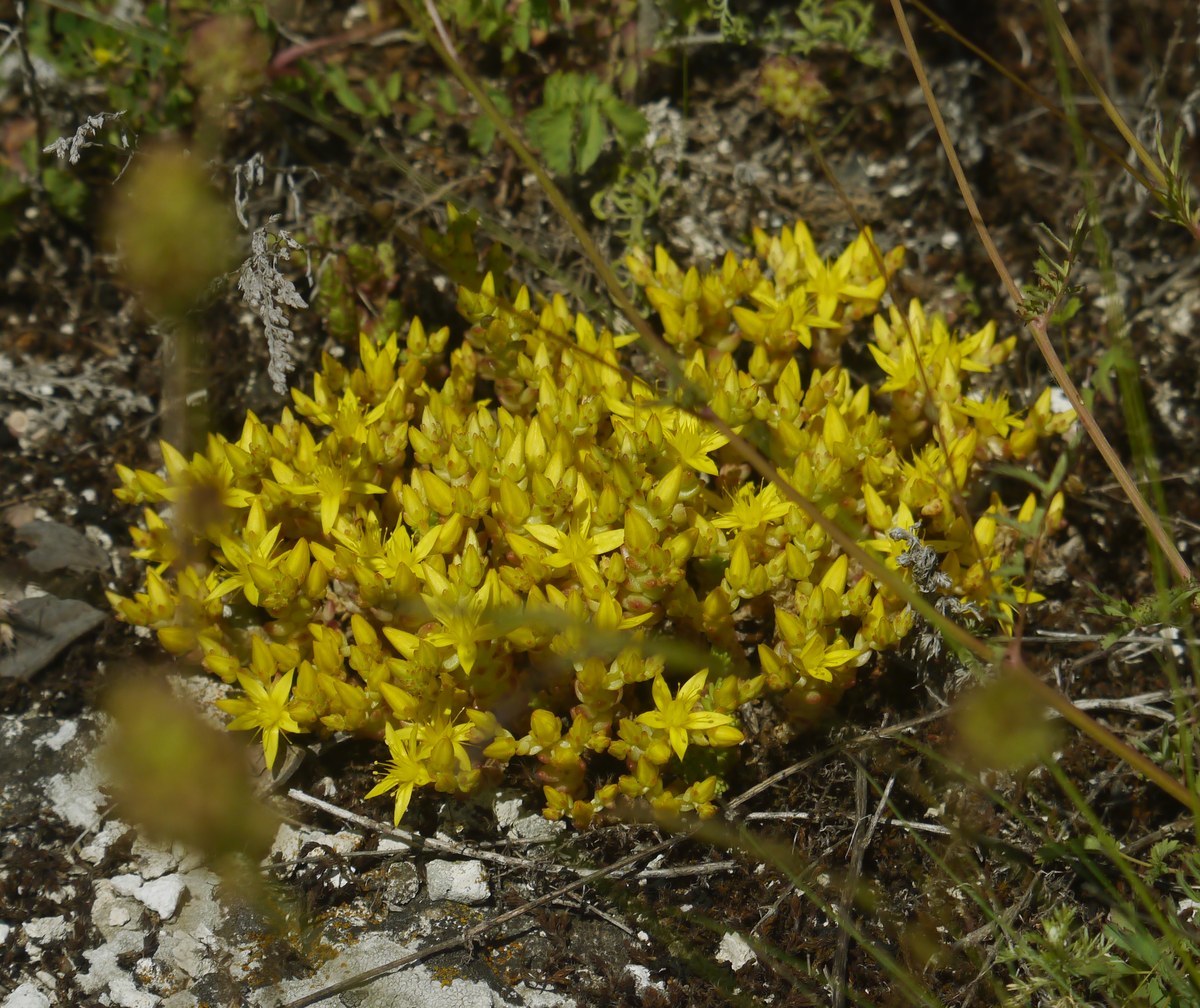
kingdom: Plantae
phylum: Tracheophyta
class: Magnoliopsida
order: Saxifragales
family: Crassulaceae
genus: Sedum
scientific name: Sedum acre
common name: Biting stonecrop
